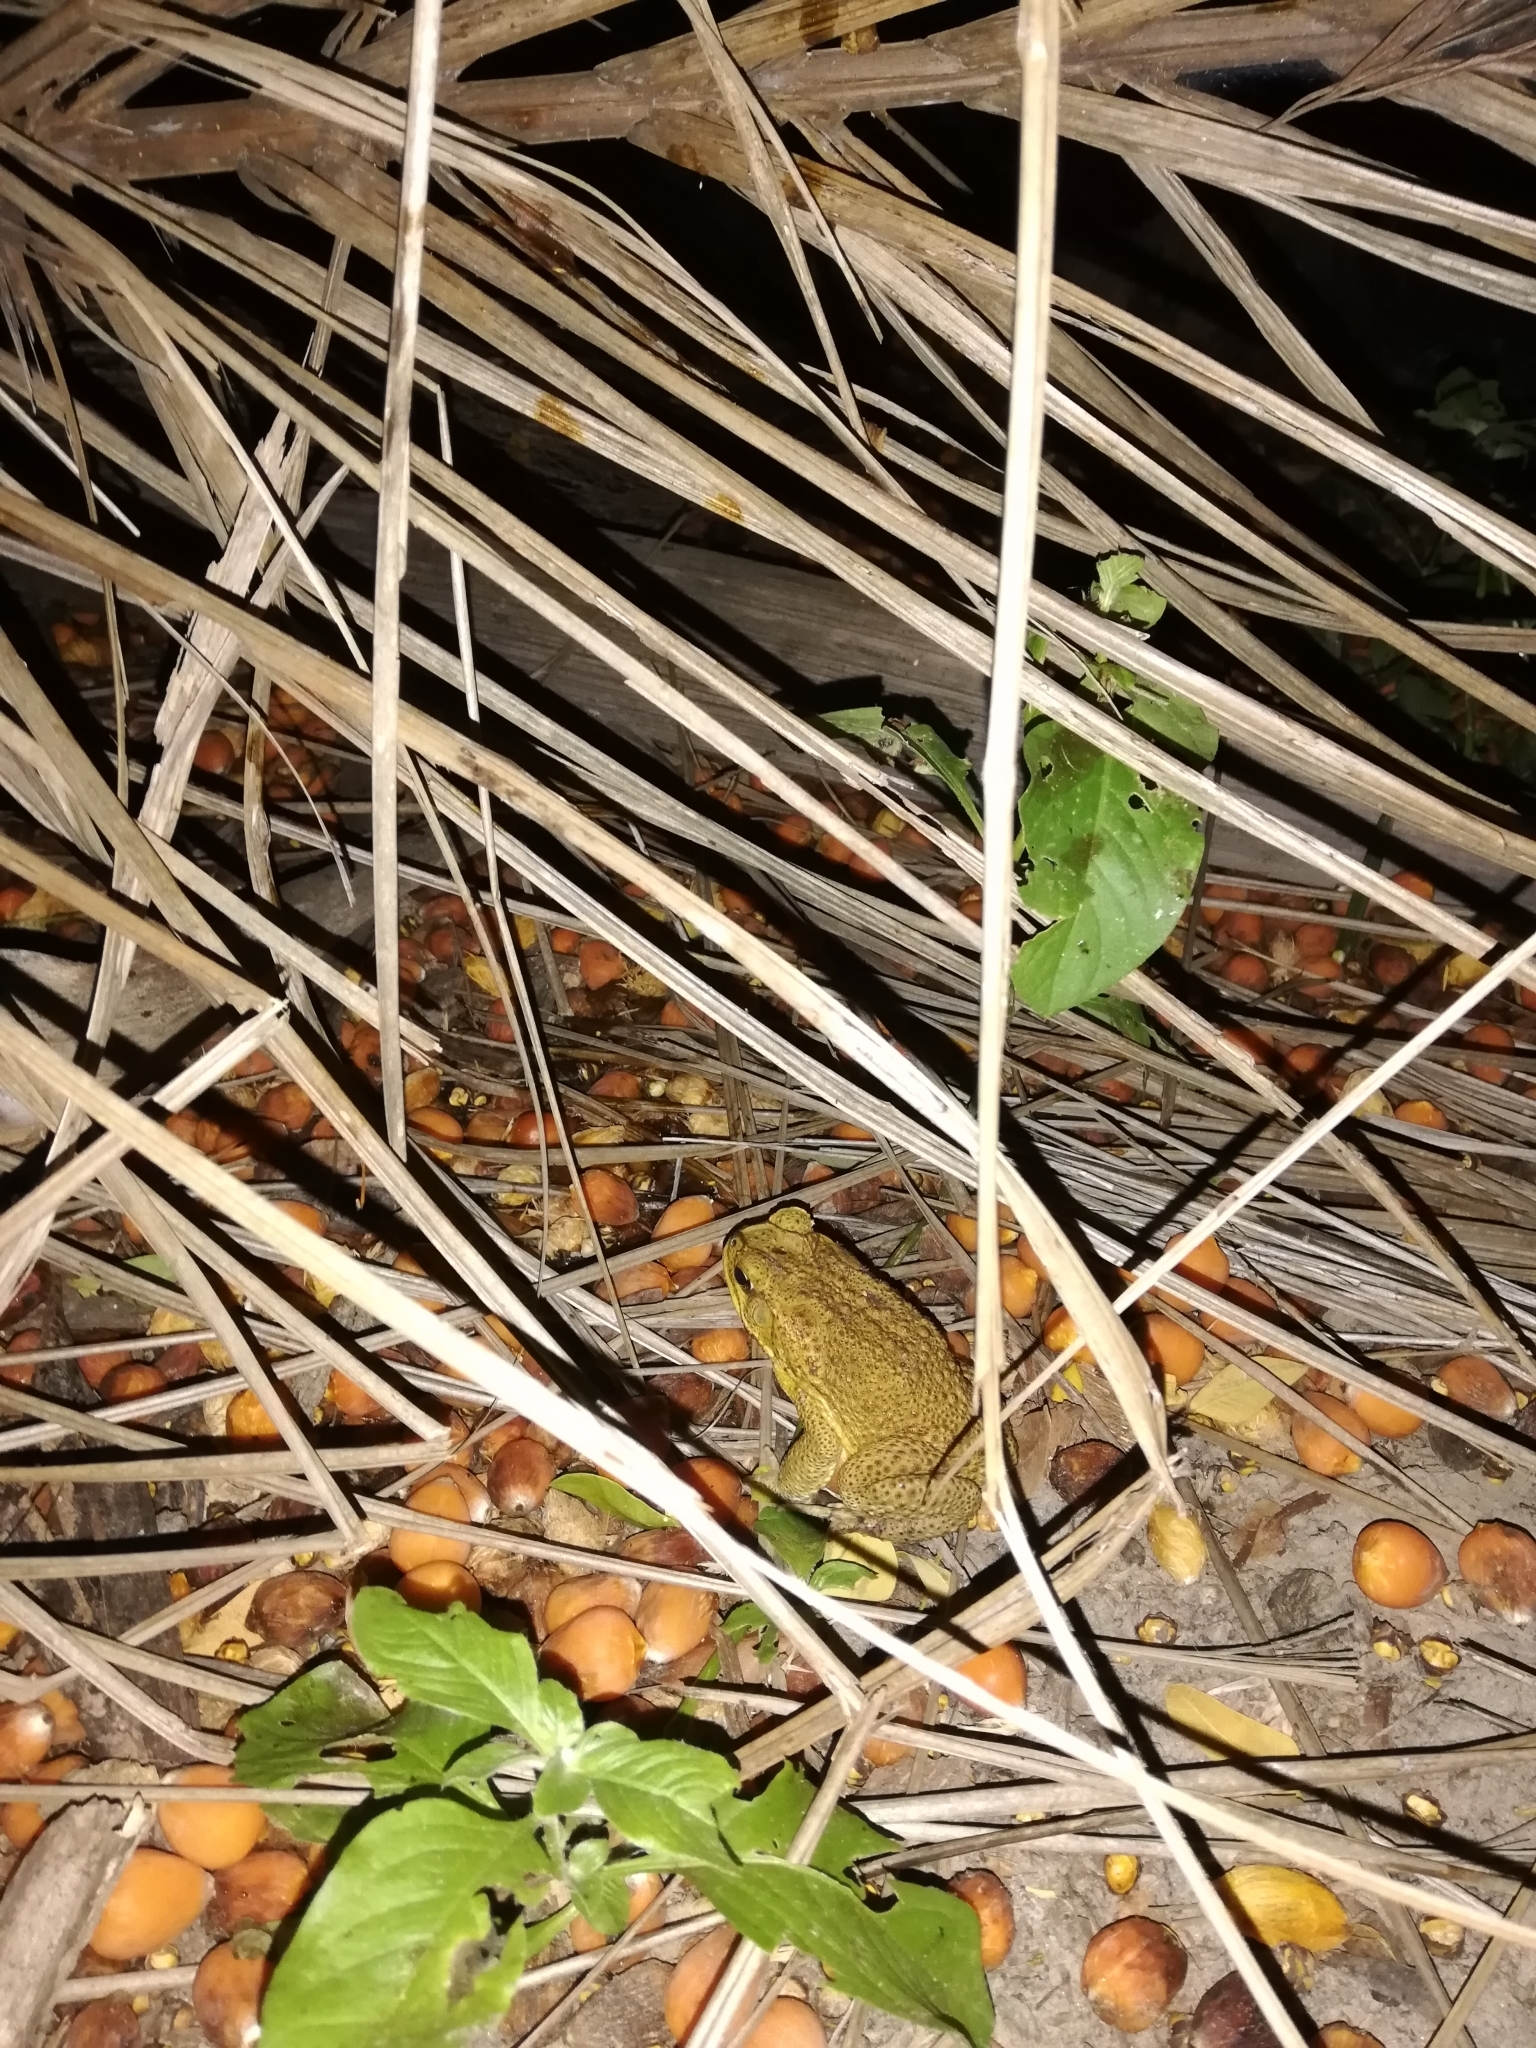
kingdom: Animalia
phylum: Chordata
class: Amphibia
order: Anura
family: Bufonidae
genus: Rhinella
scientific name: Rhinella marina
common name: Cane toad
